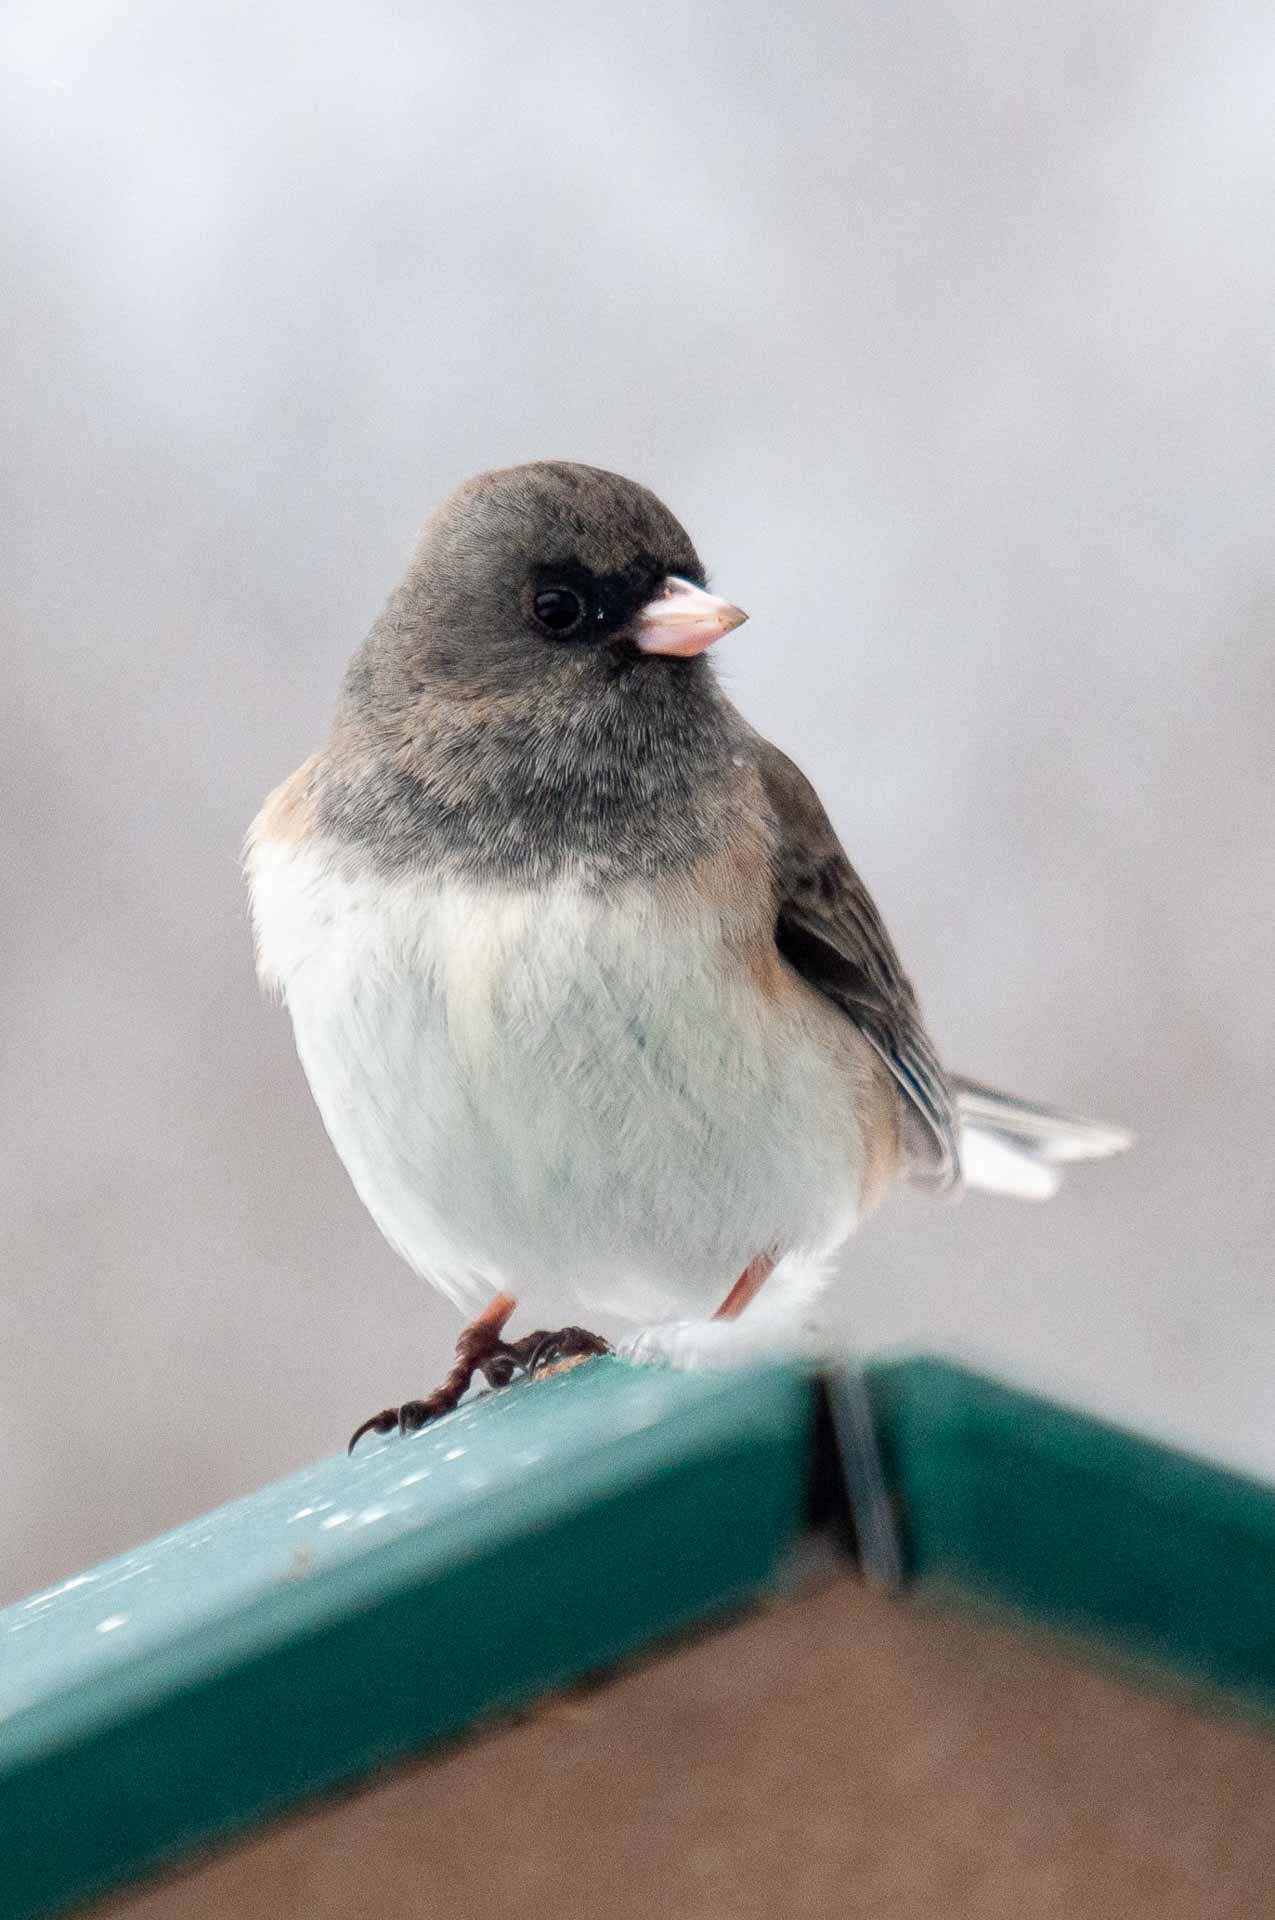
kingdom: Animalia
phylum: Chordata
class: Aves
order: Passeriformes
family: Passerellidae
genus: Junco
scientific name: Junco hyemalis
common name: Dark-eyed junco
